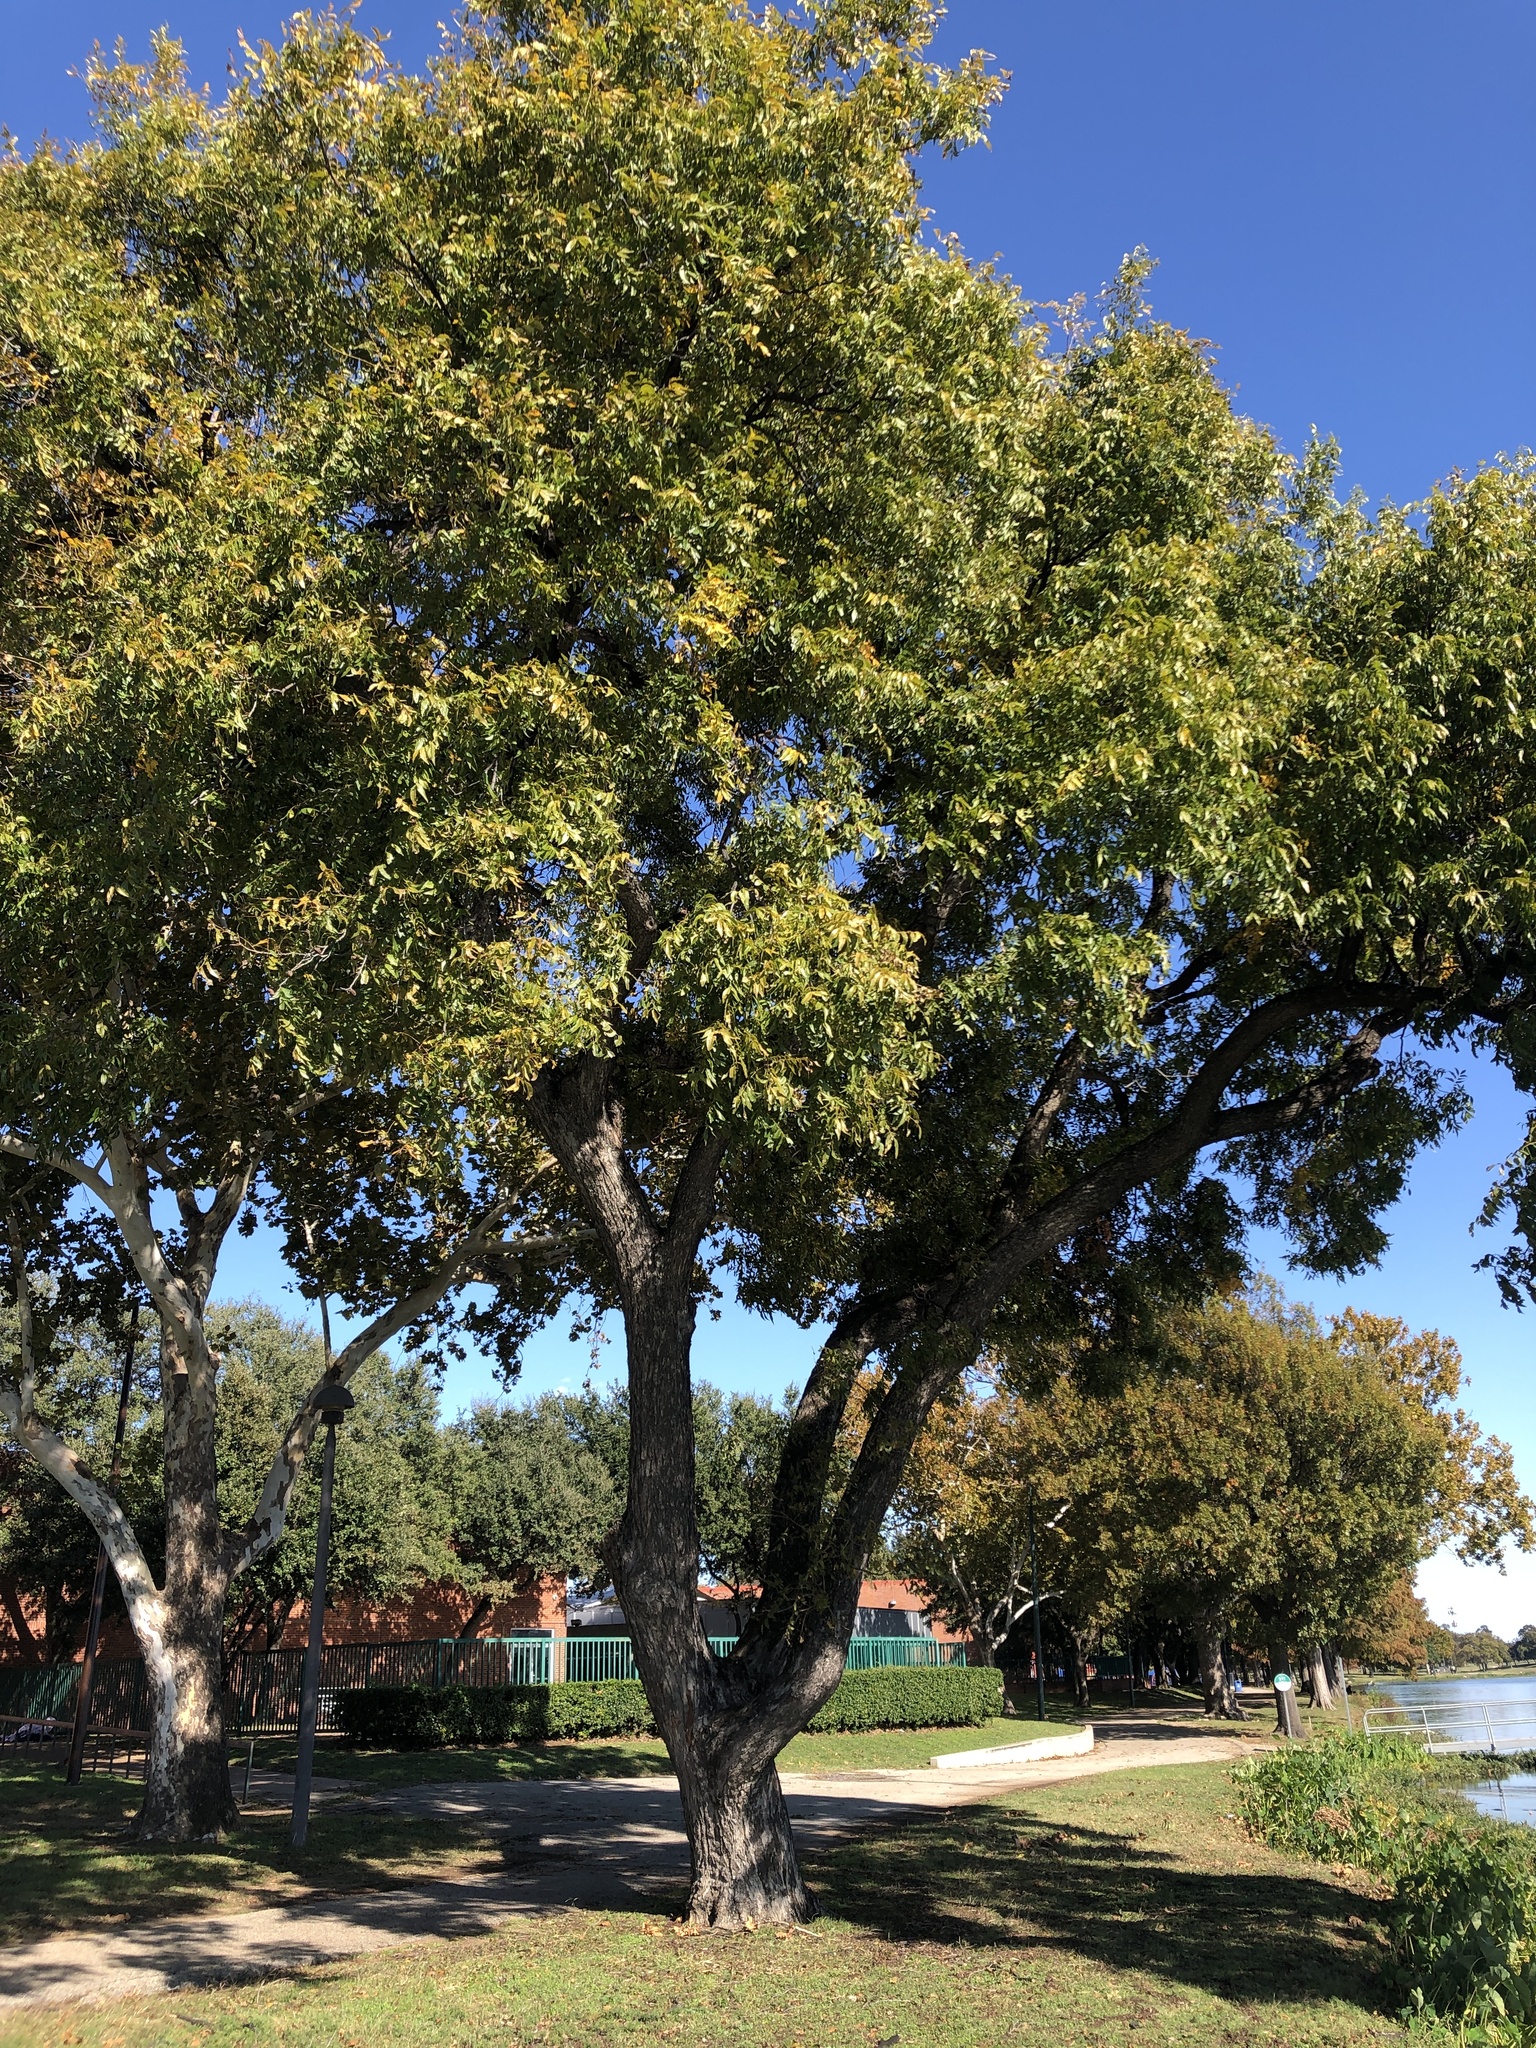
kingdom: Plantae
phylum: Tracheophyta
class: Magnoliopsida
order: Fagales
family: Juglandaceae
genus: Carya
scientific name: Carya illinoinensis
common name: Pecan
